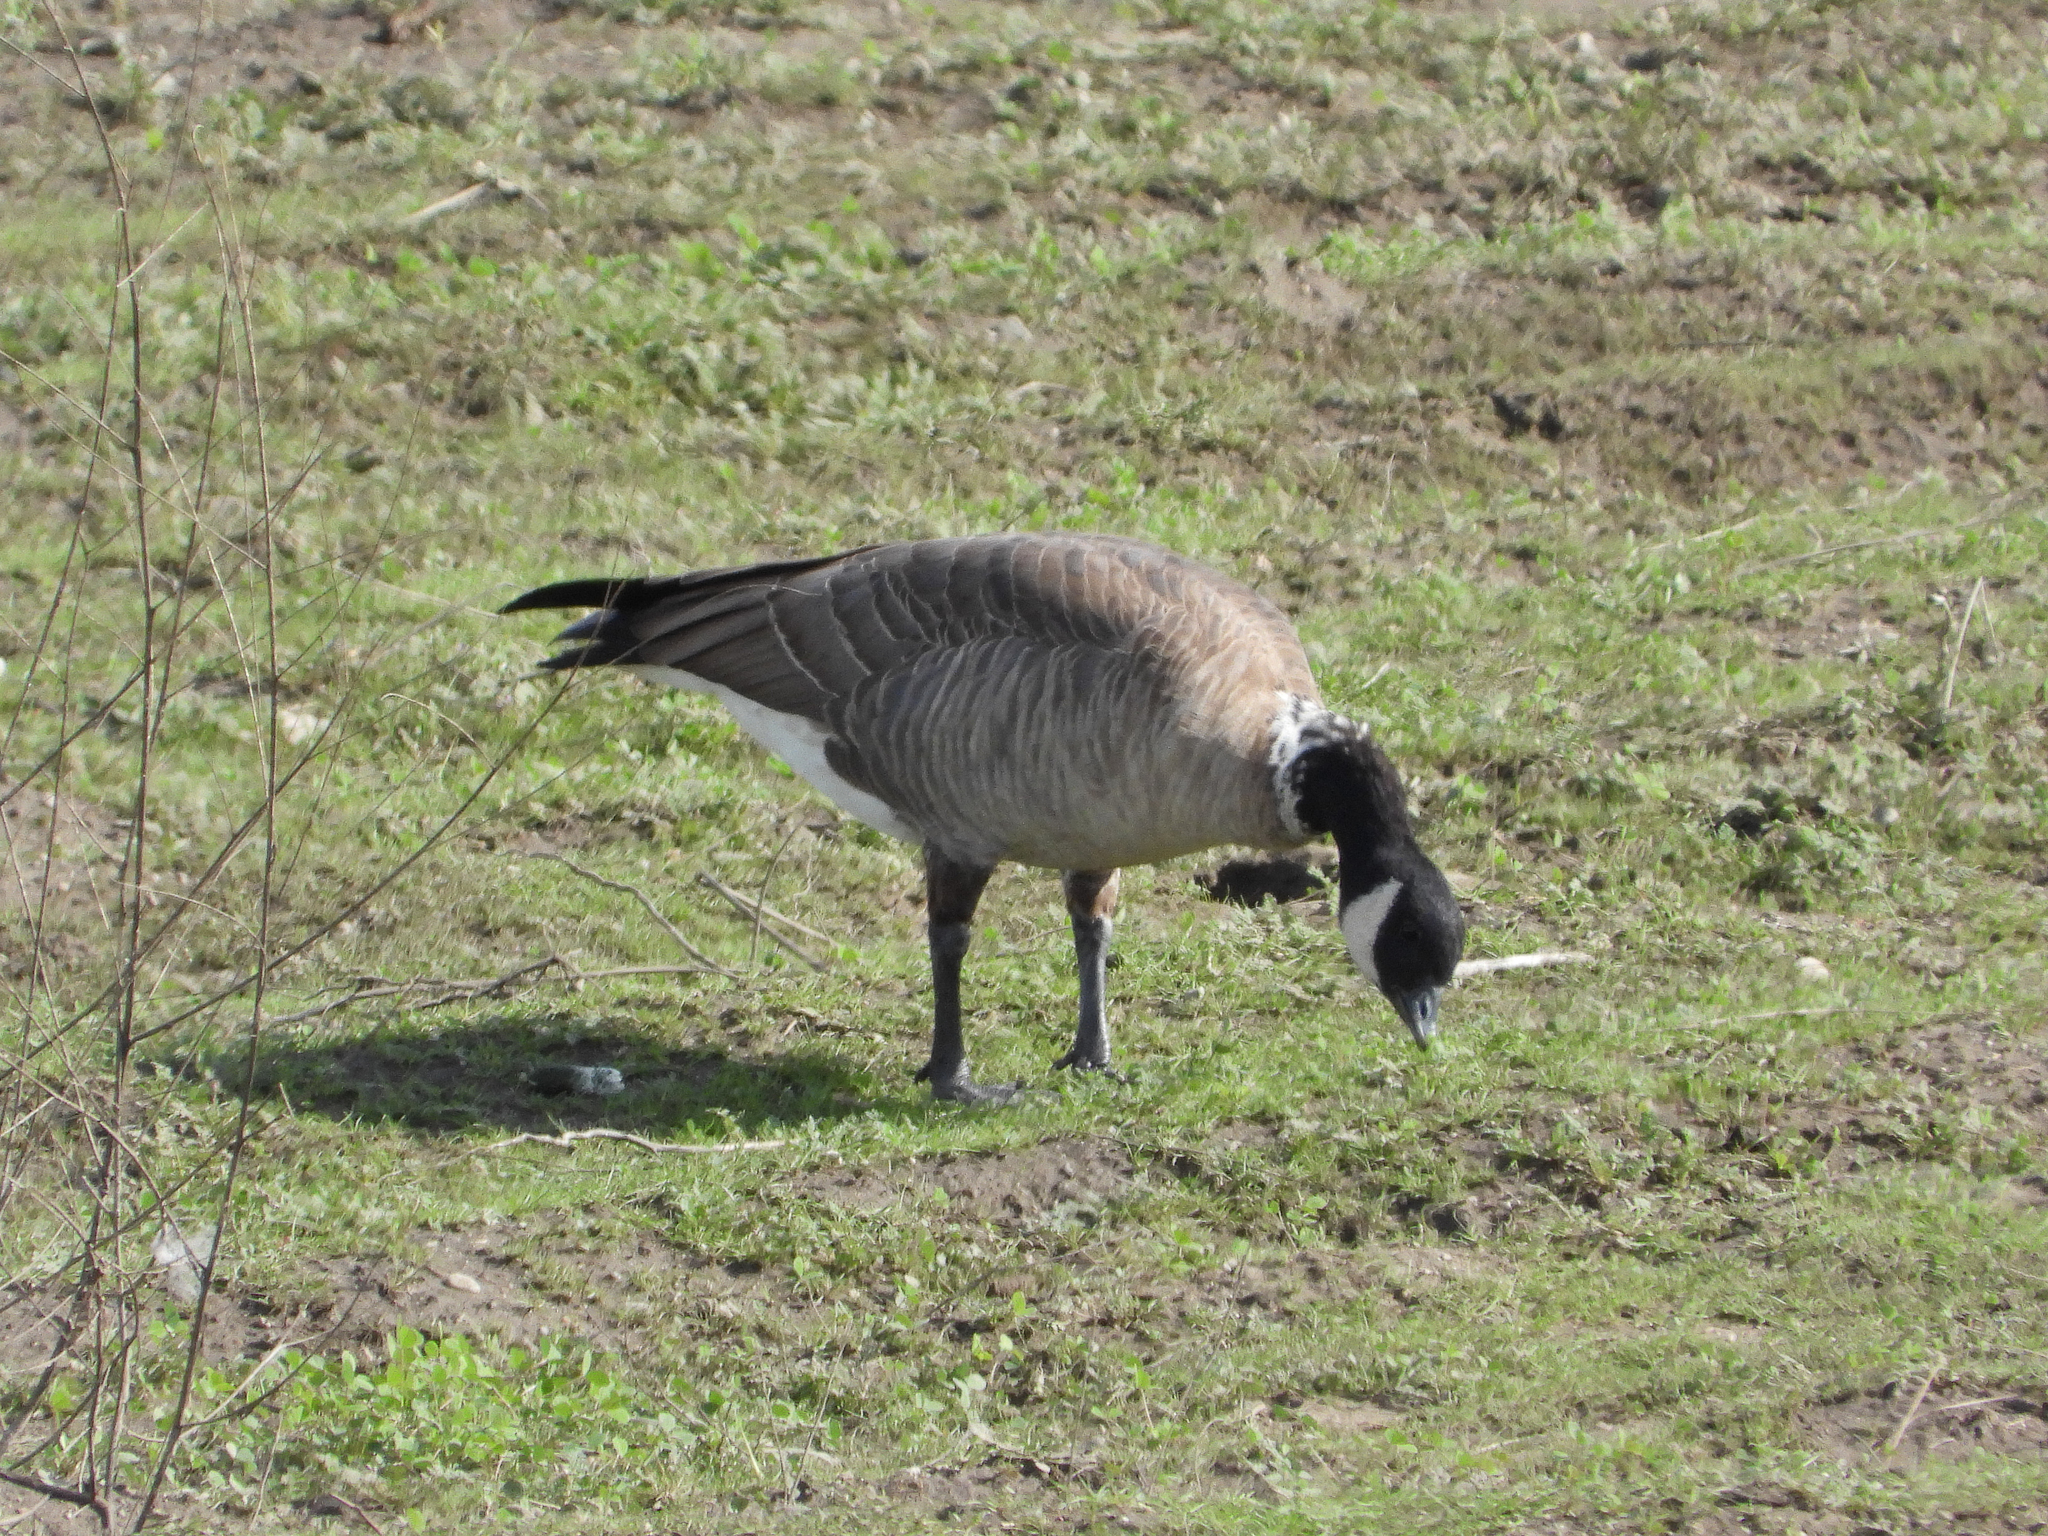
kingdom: Animalia
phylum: Chordata
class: Aves
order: Anseriformes
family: Anatidae
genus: Branta
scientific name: Branta hutchinsii
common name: Cackling goose
